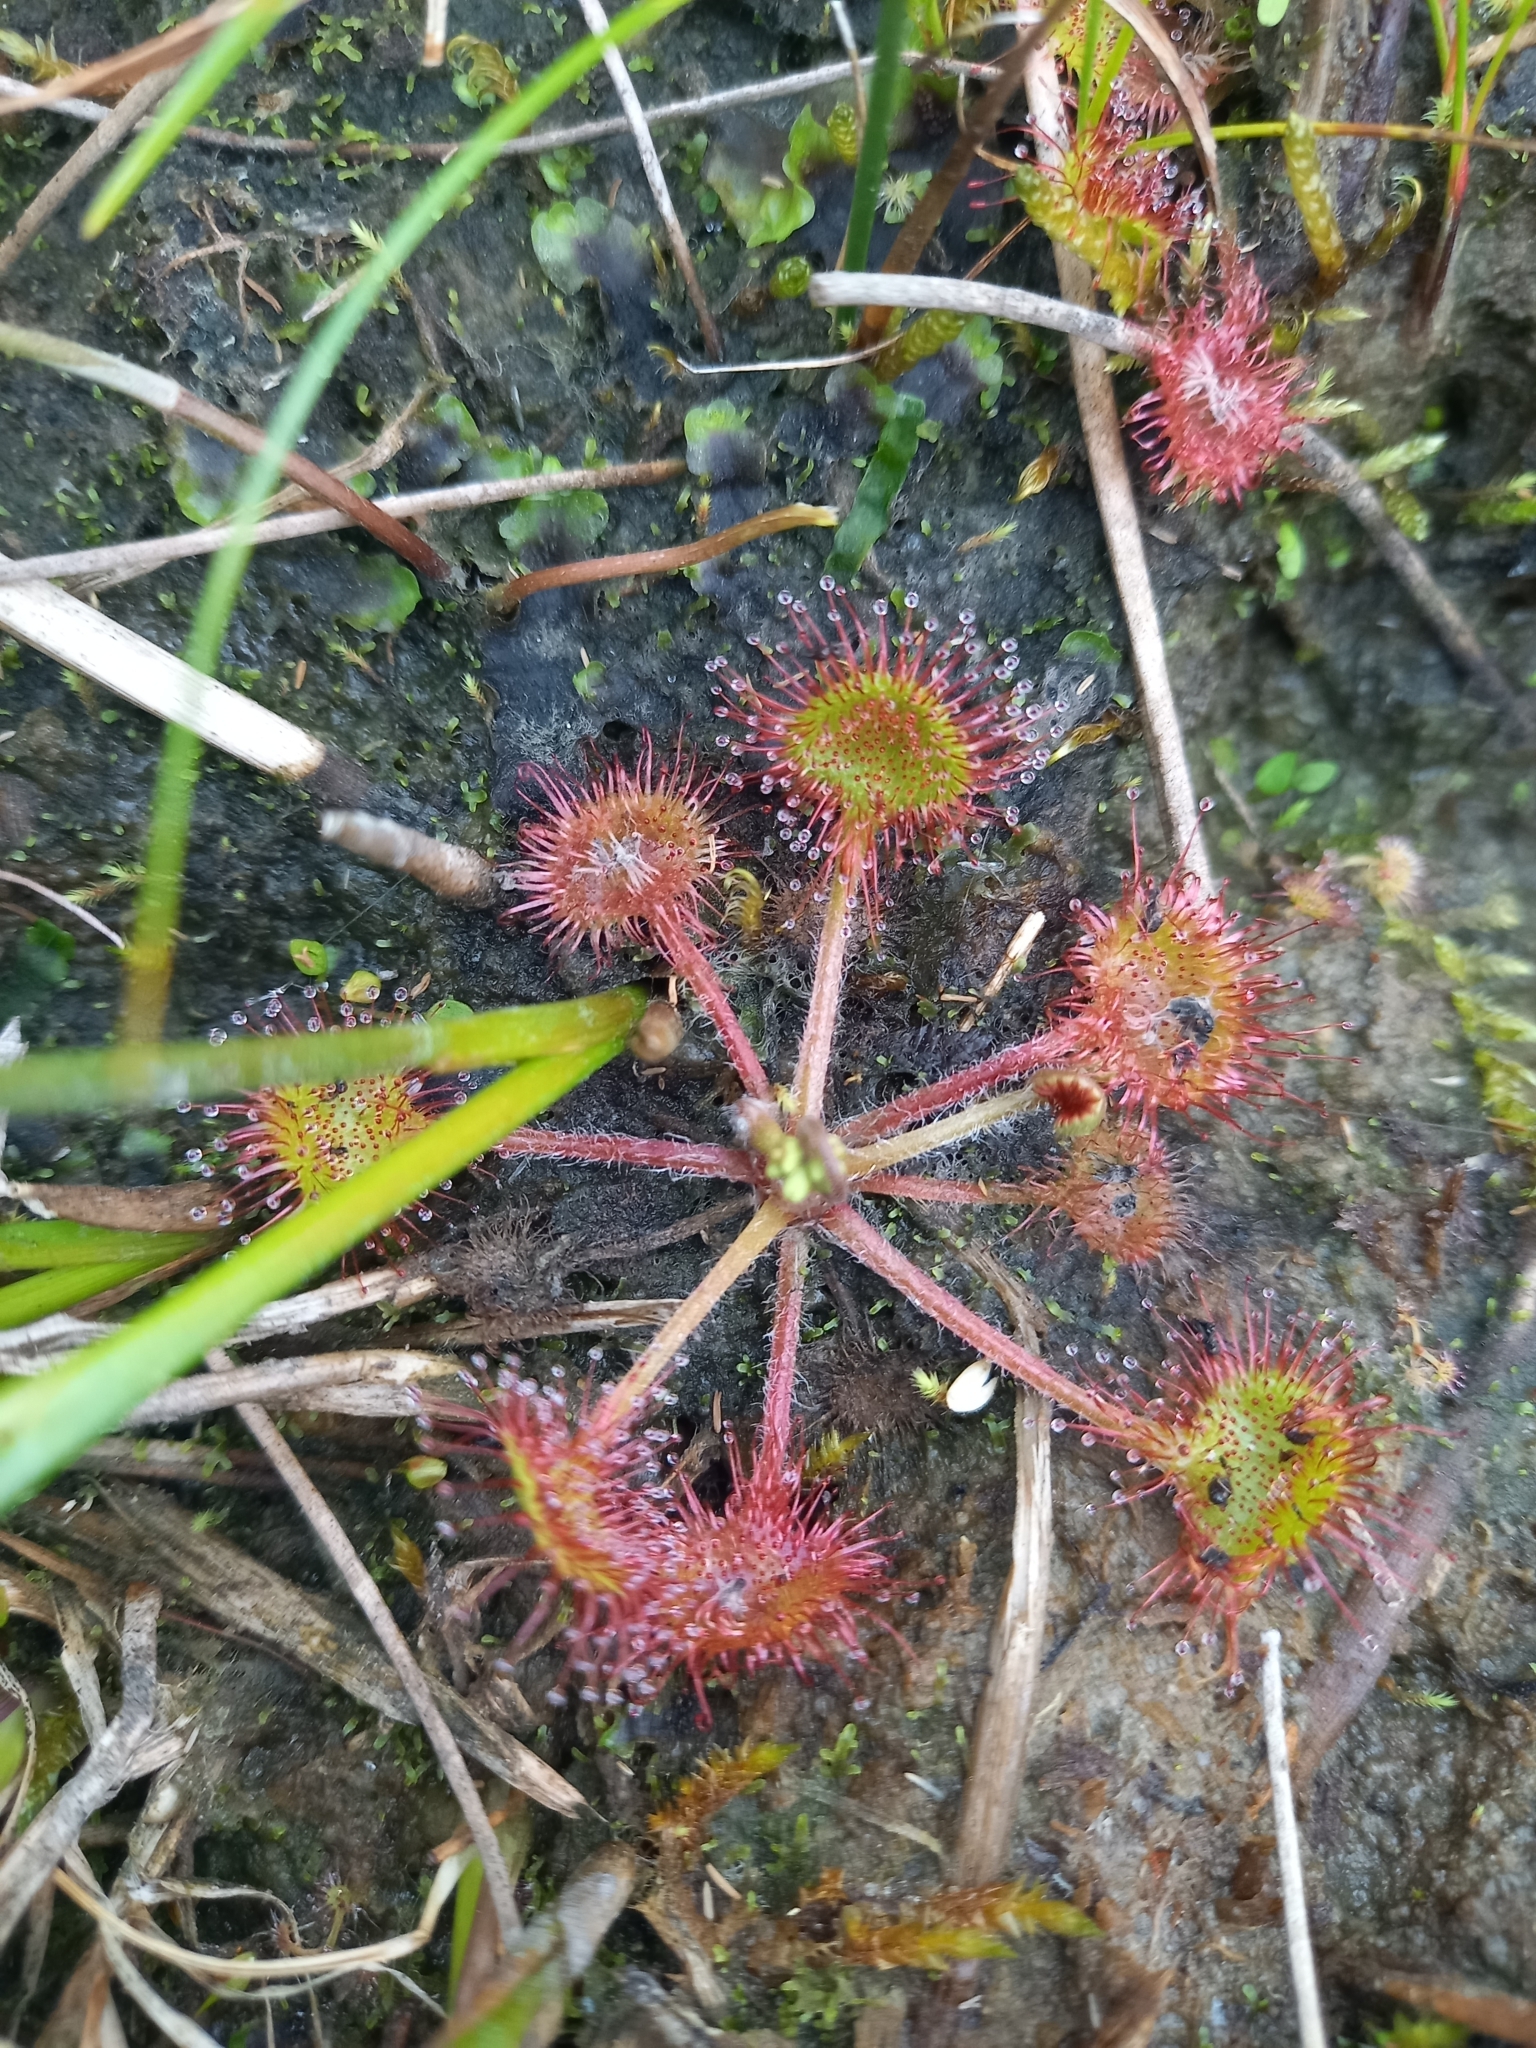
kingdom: Plantae
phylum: Tracheophyta
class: Magnoliopsida
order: Caryophyllales
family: Droseraceae
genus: Drosera
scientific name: Drosera rotundifolia
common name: Round-leaved sundew
